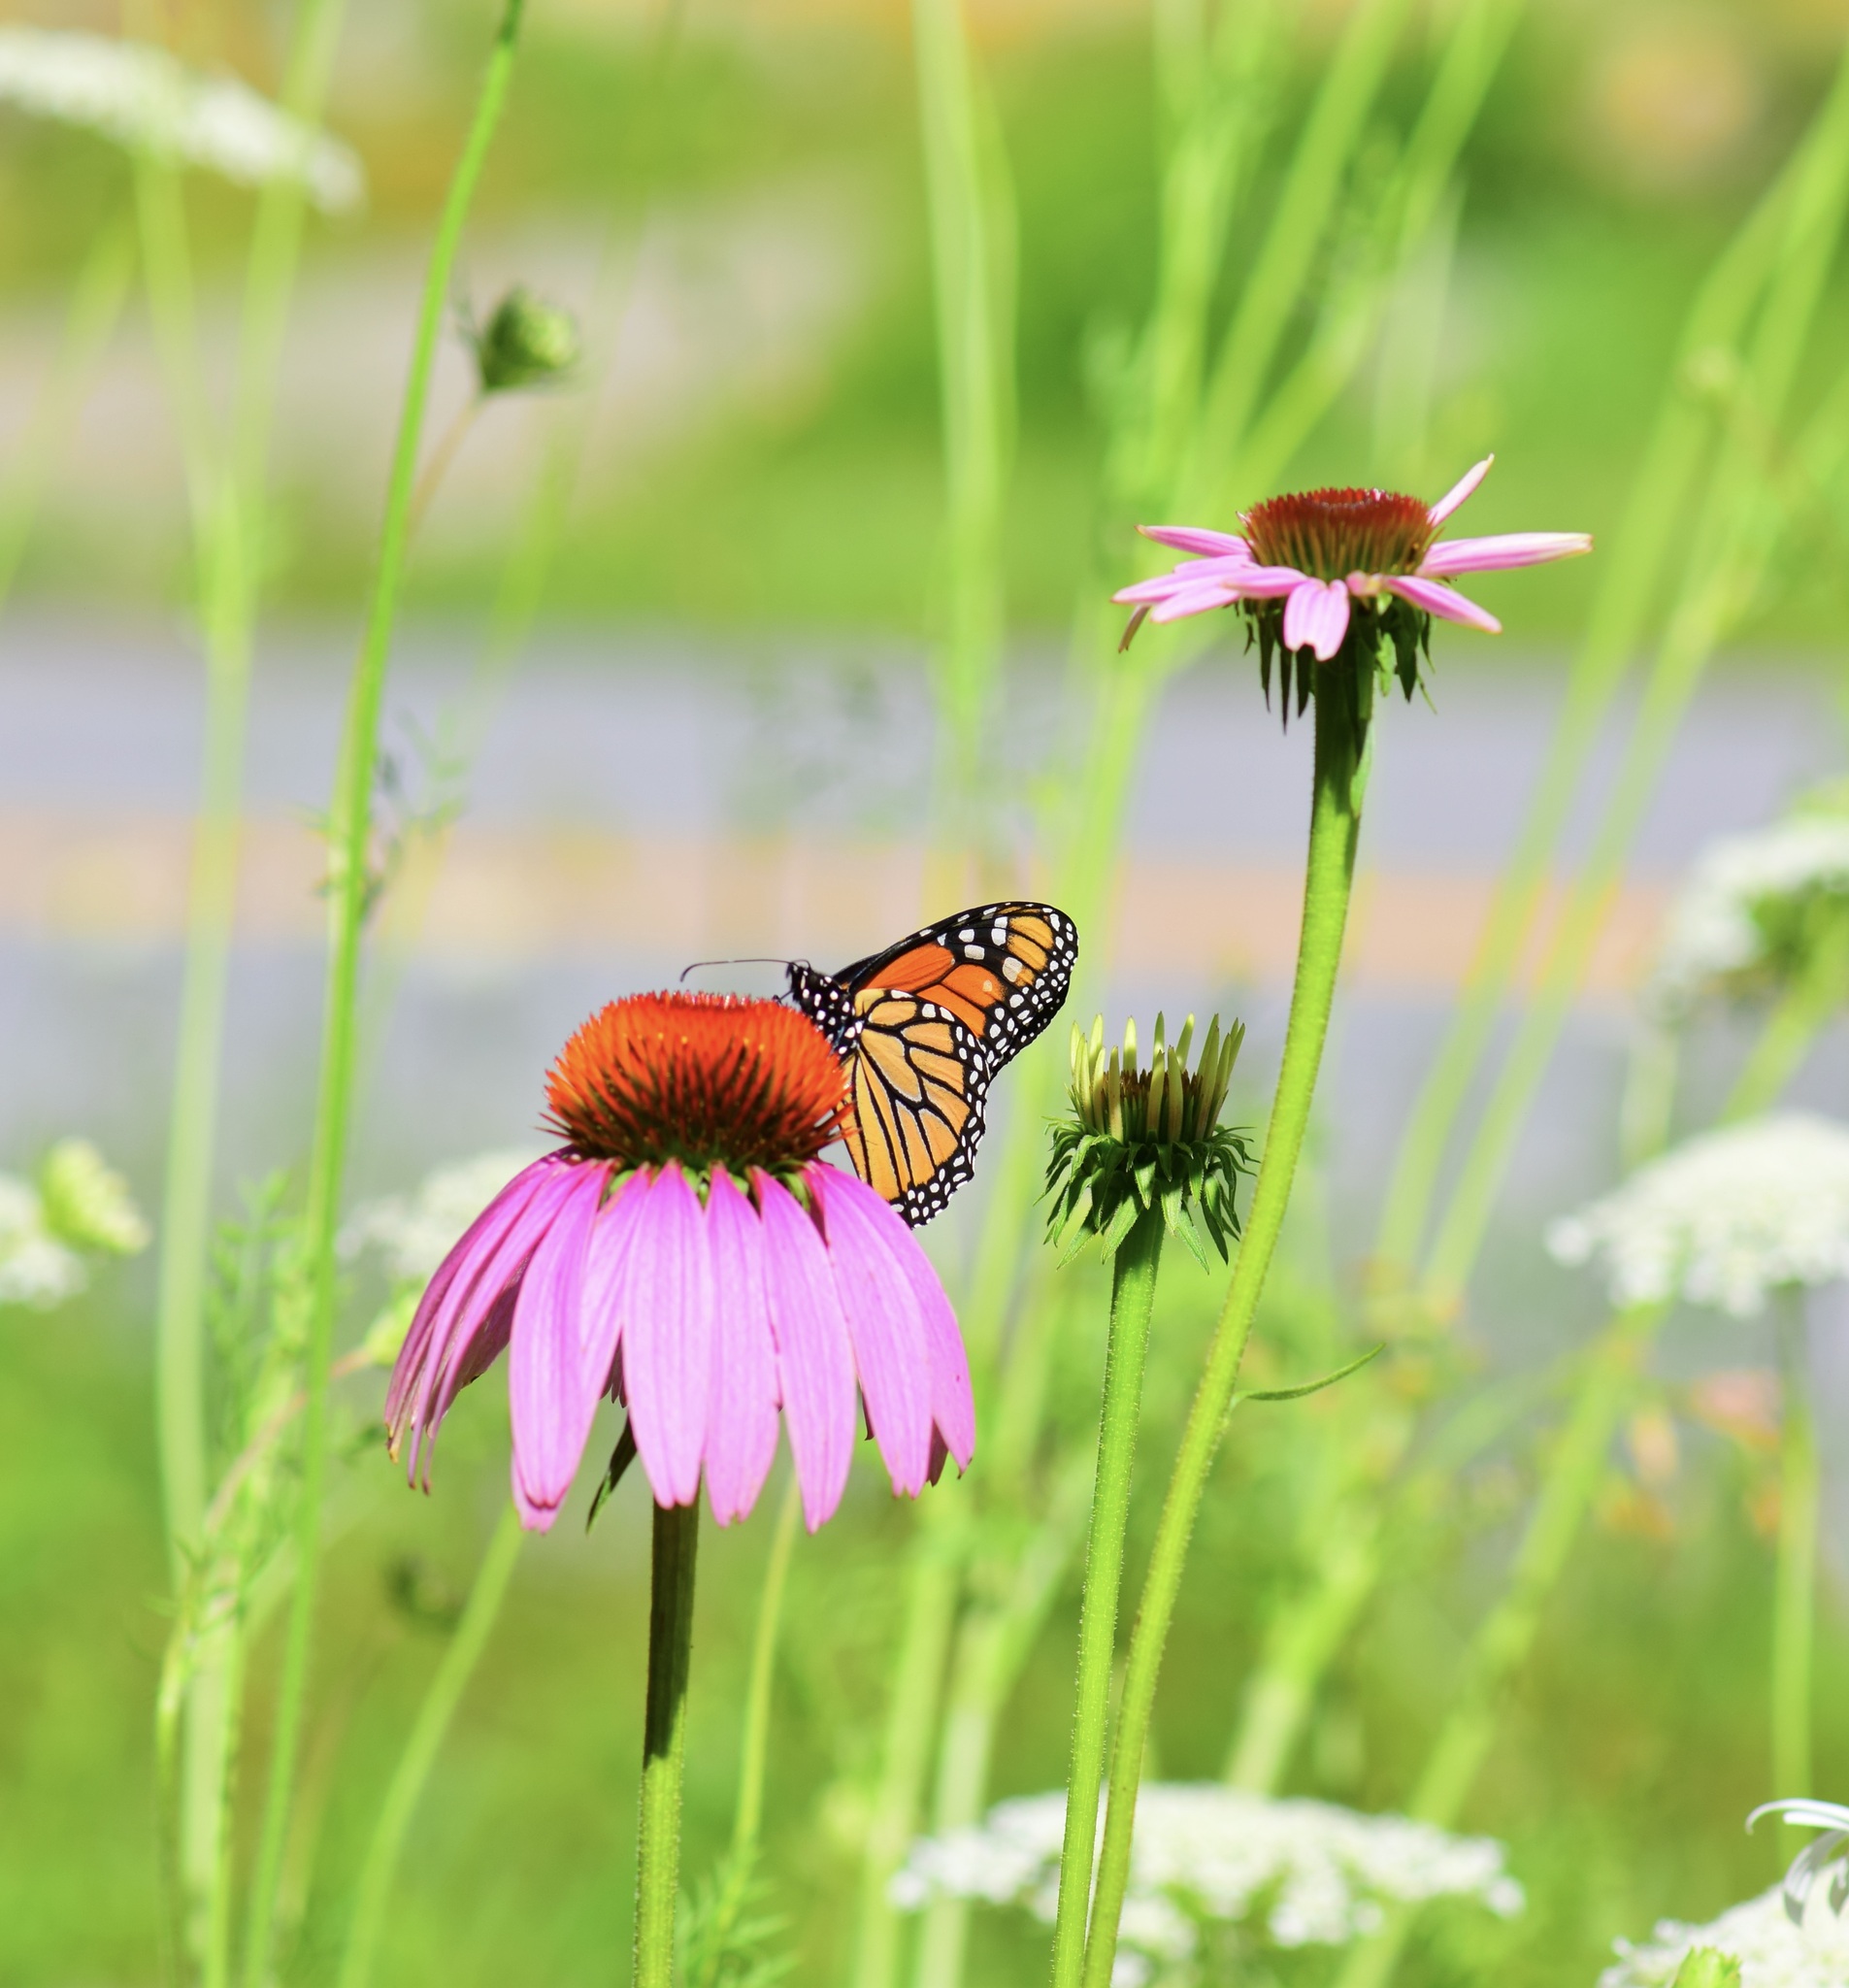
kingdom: Animalia
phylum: Arthropoda
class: Insecta
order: Lepidoptera
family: Nymphalidae
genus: Danaus
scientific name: Danaus plexippus
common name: Monarch
